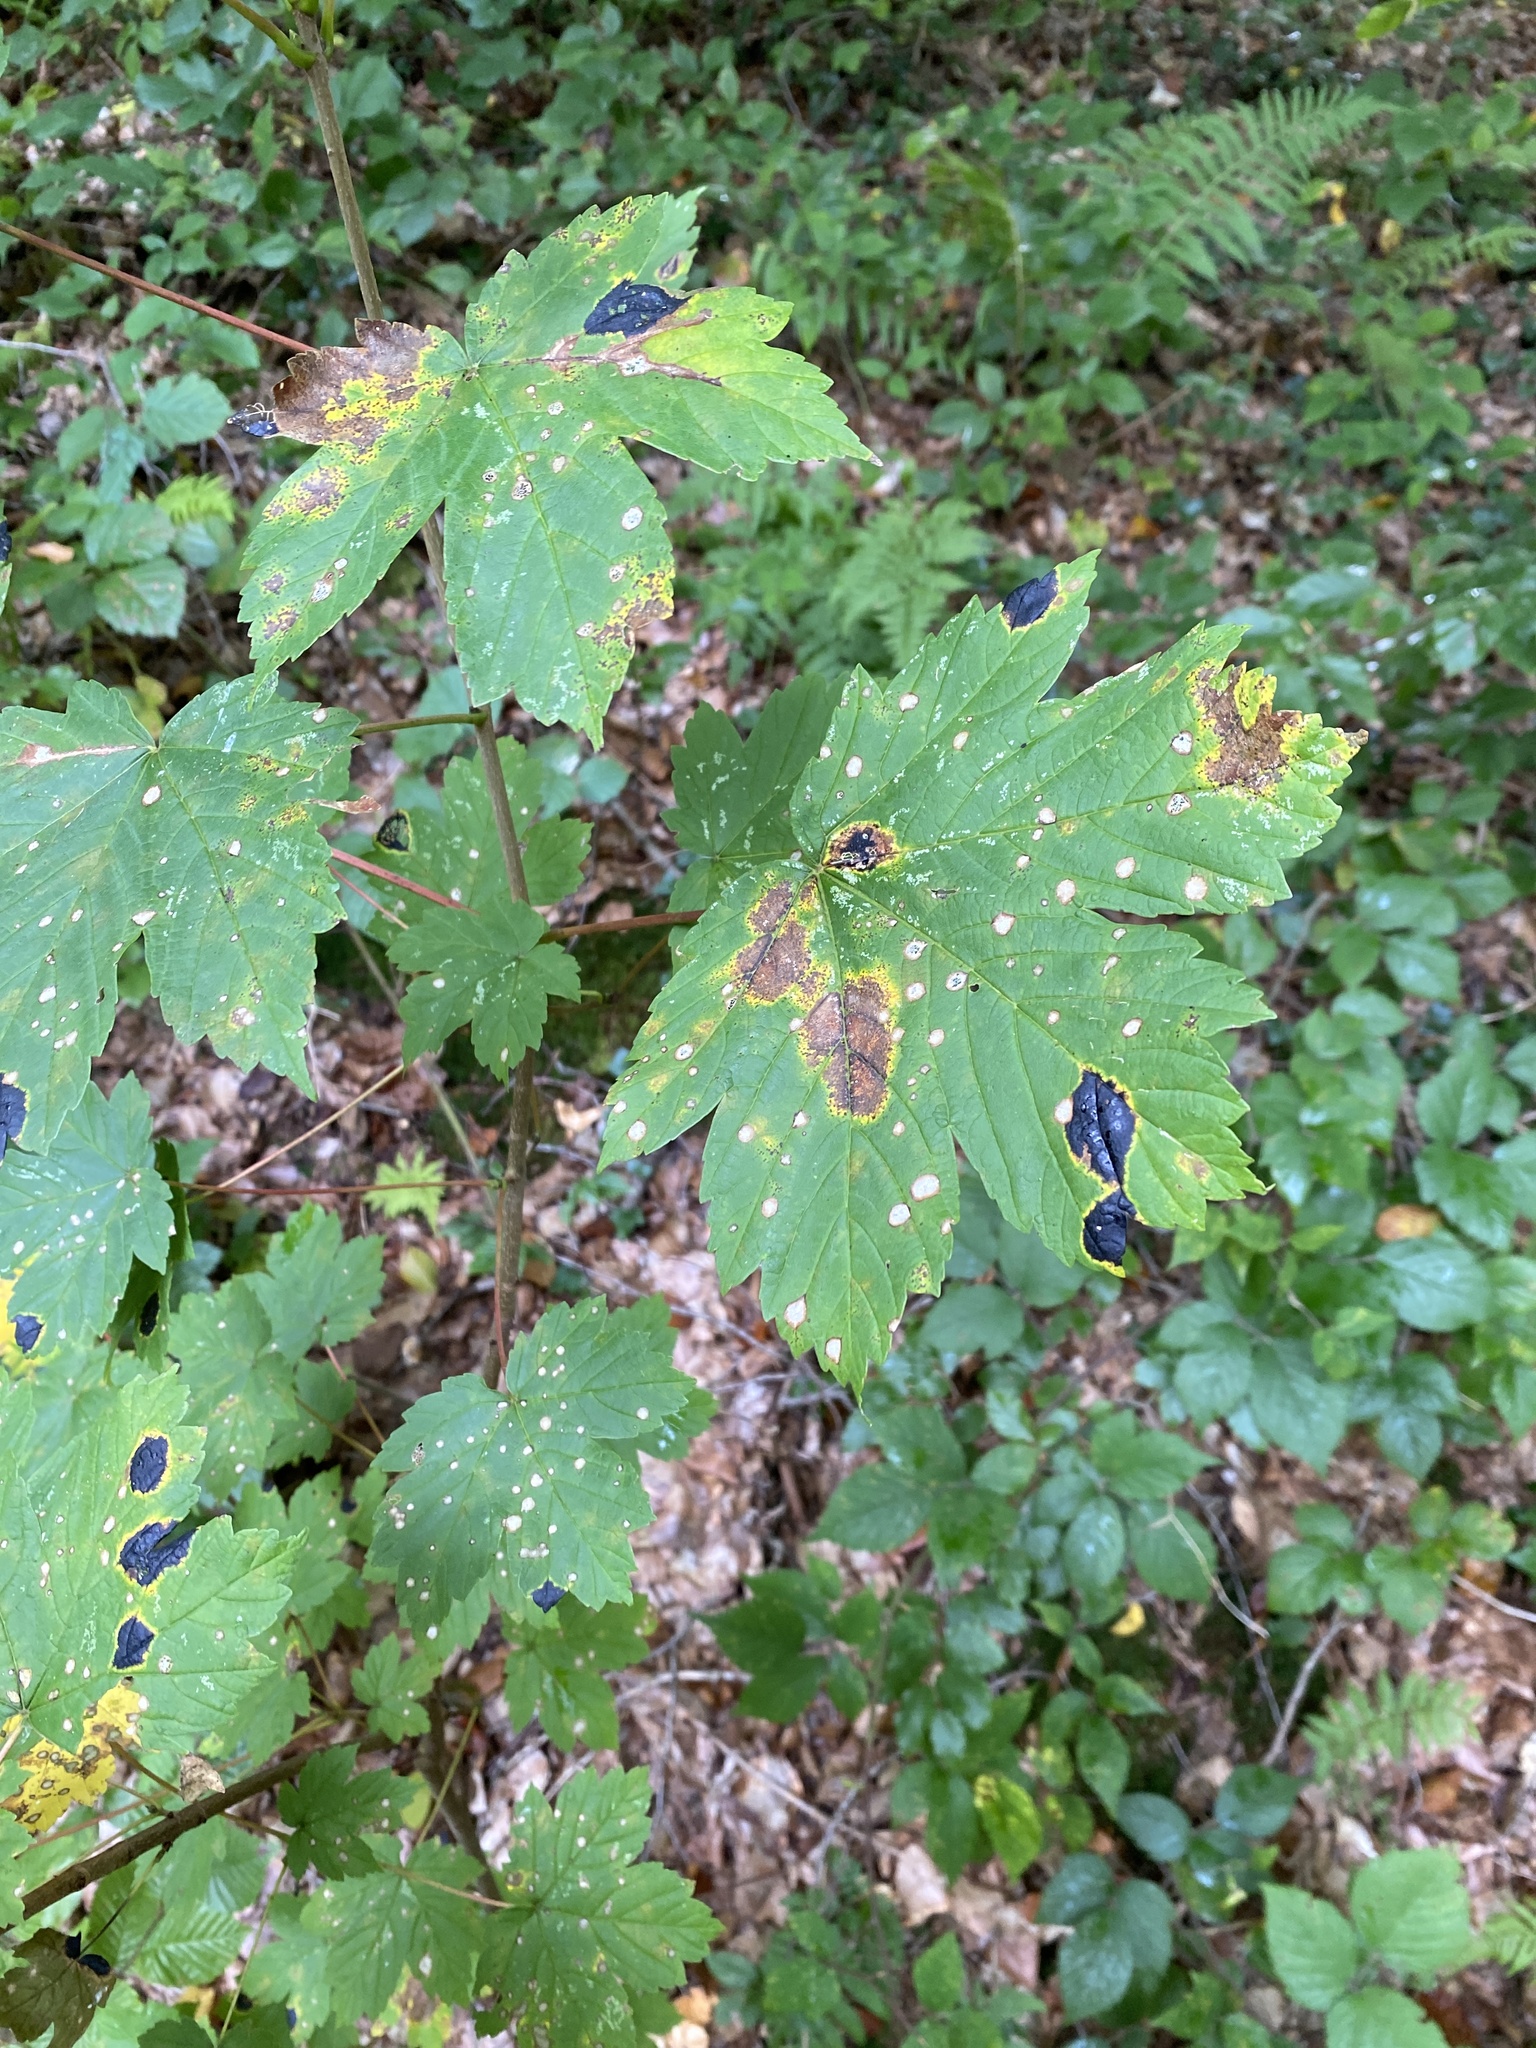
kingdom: Plantae
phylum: Tracheophyta
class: Magnoliopsida
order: Sapindales
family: Sapindaceae
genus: Acer
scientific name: Acer pseudoplatanus
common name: Sycamore
